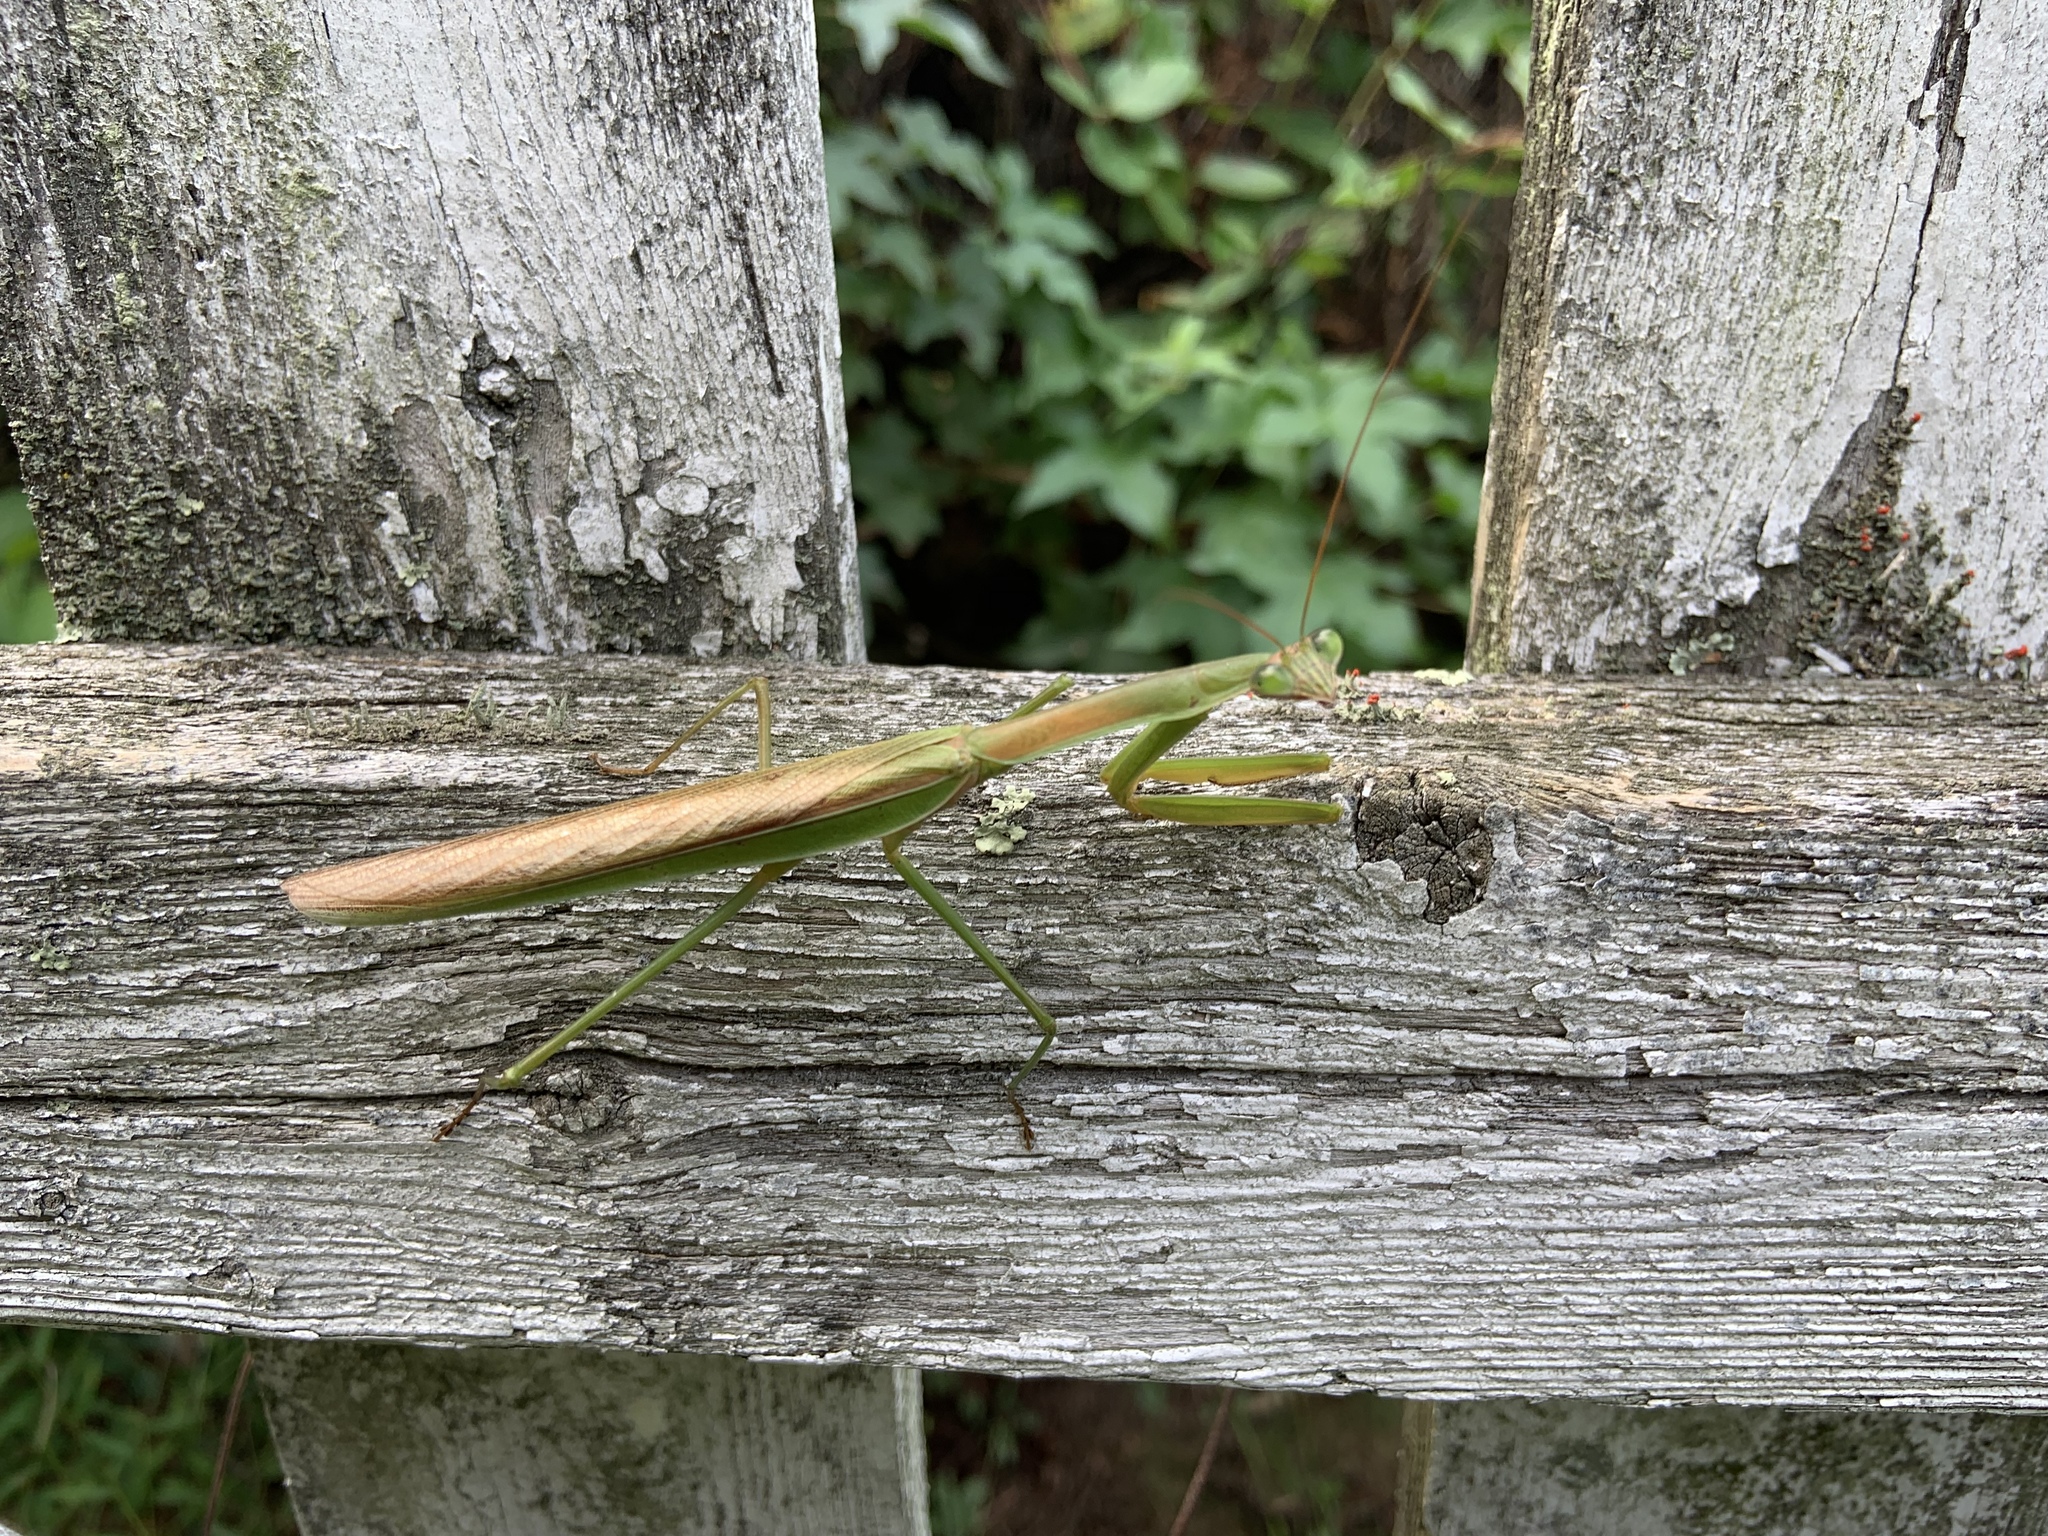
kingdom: Animalia
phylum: Arthropoda
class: Insecta
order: Mantodea
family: Mantidae
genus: Tenodera
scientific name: Tenodera sinensis
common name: Chinese mantis
